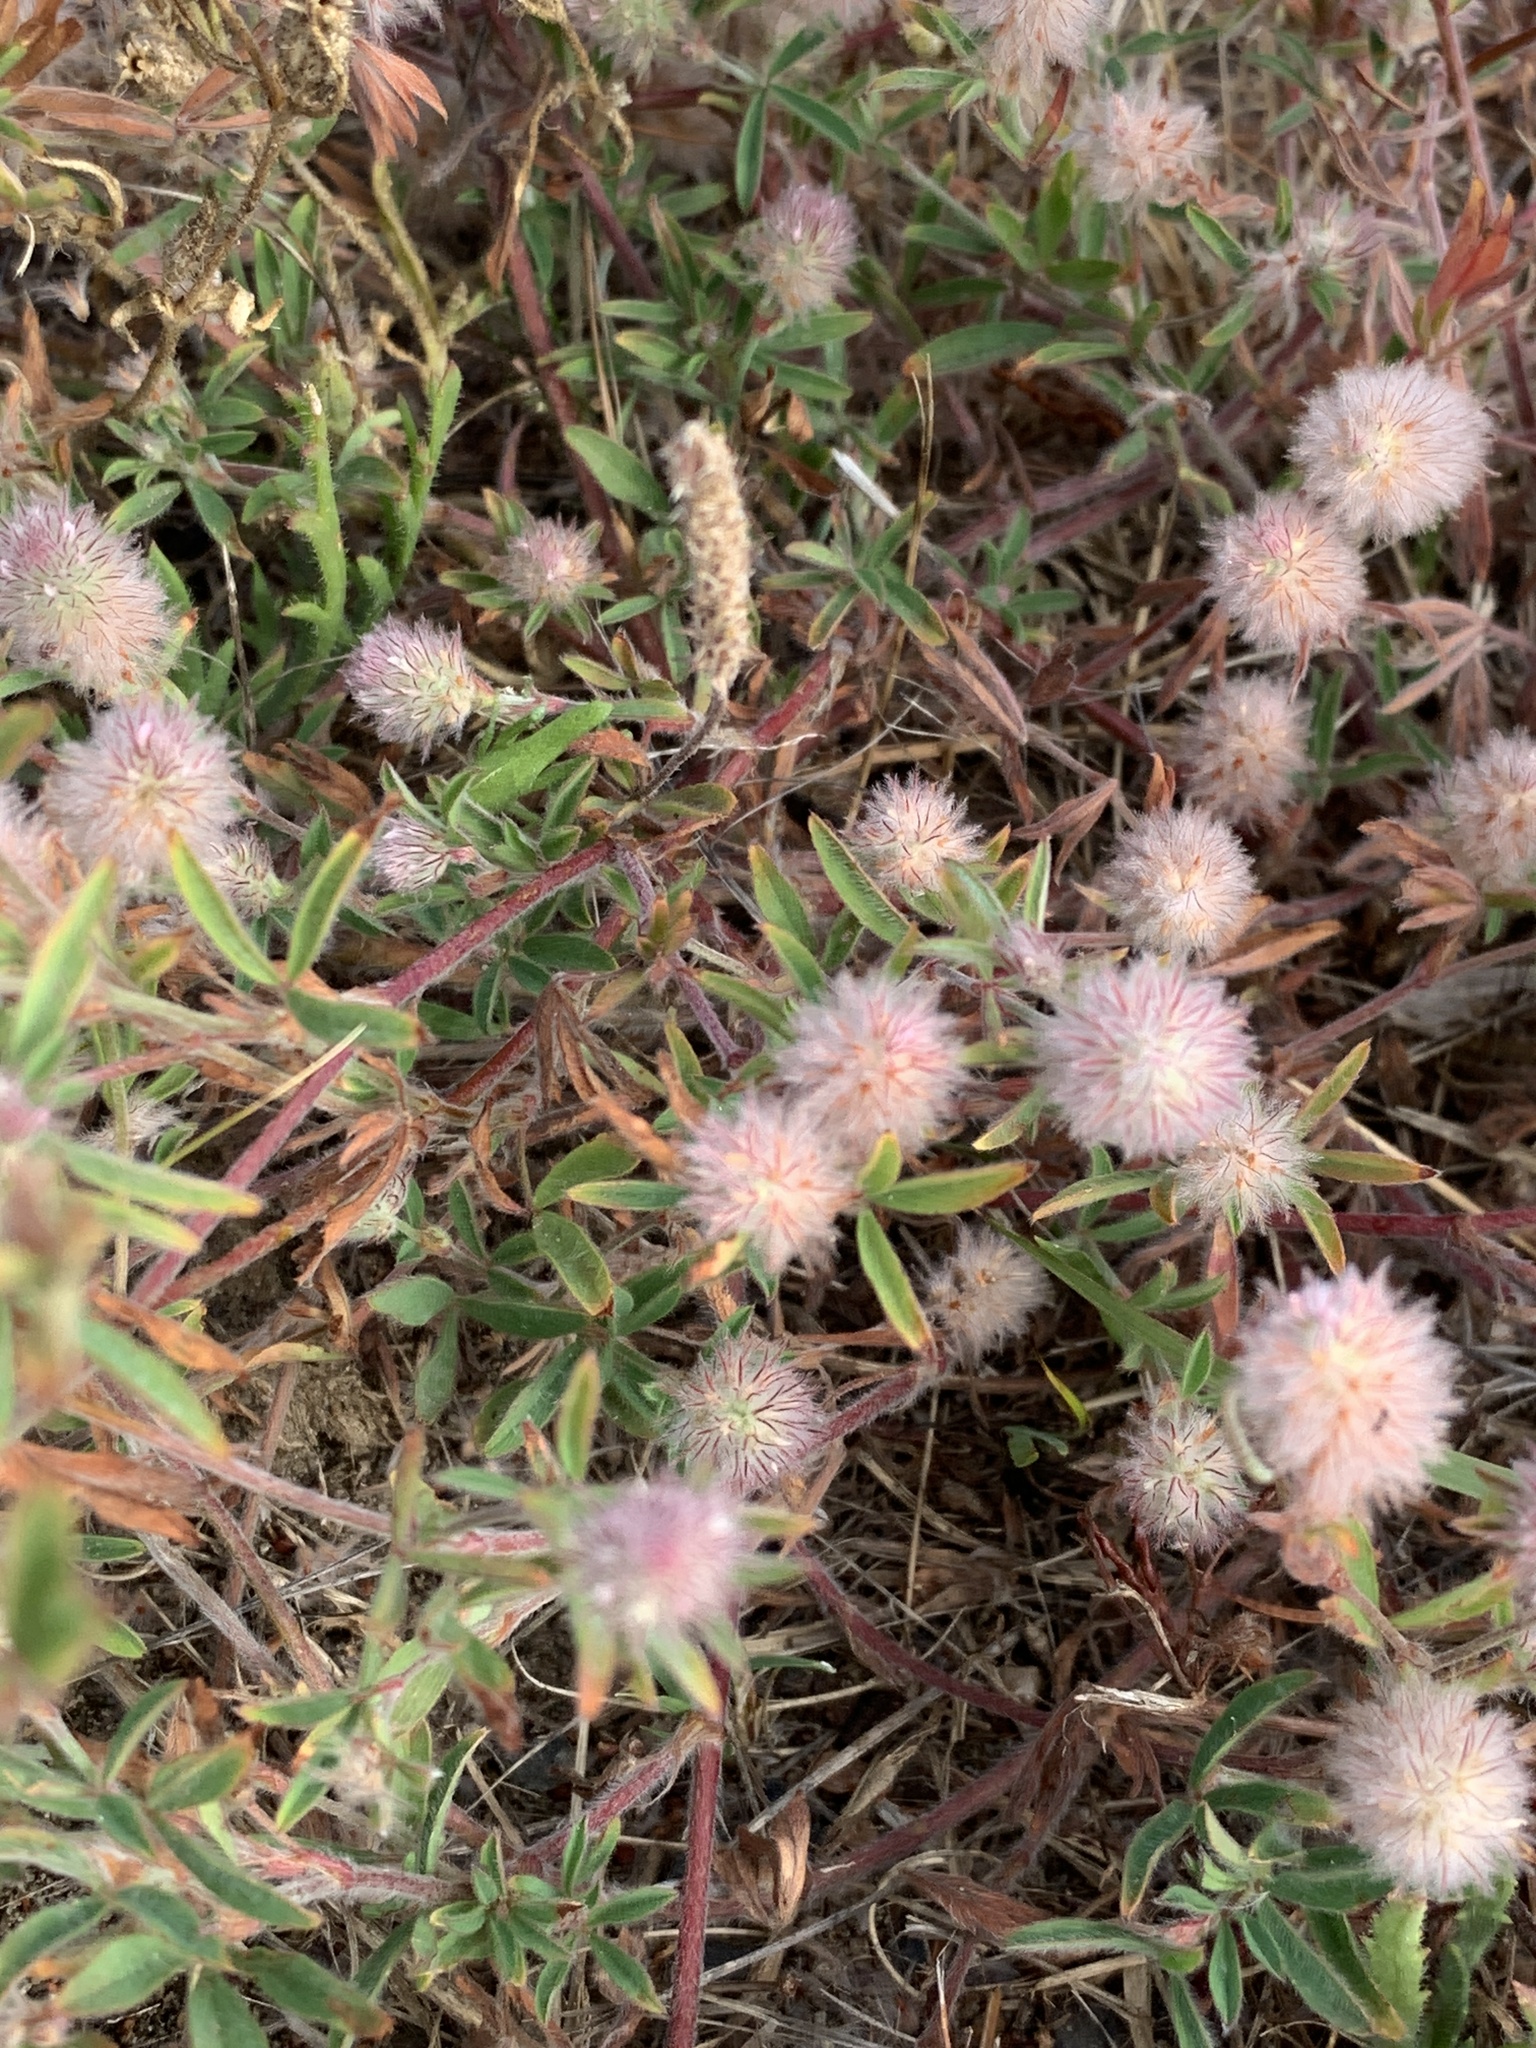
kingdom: Plantae
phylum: Tracheophyta
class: Magnoliopsida
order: Fabales
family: Fabaceae
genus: Trifolium
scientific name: Trifolium arvense
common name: Hare's-foot clover
